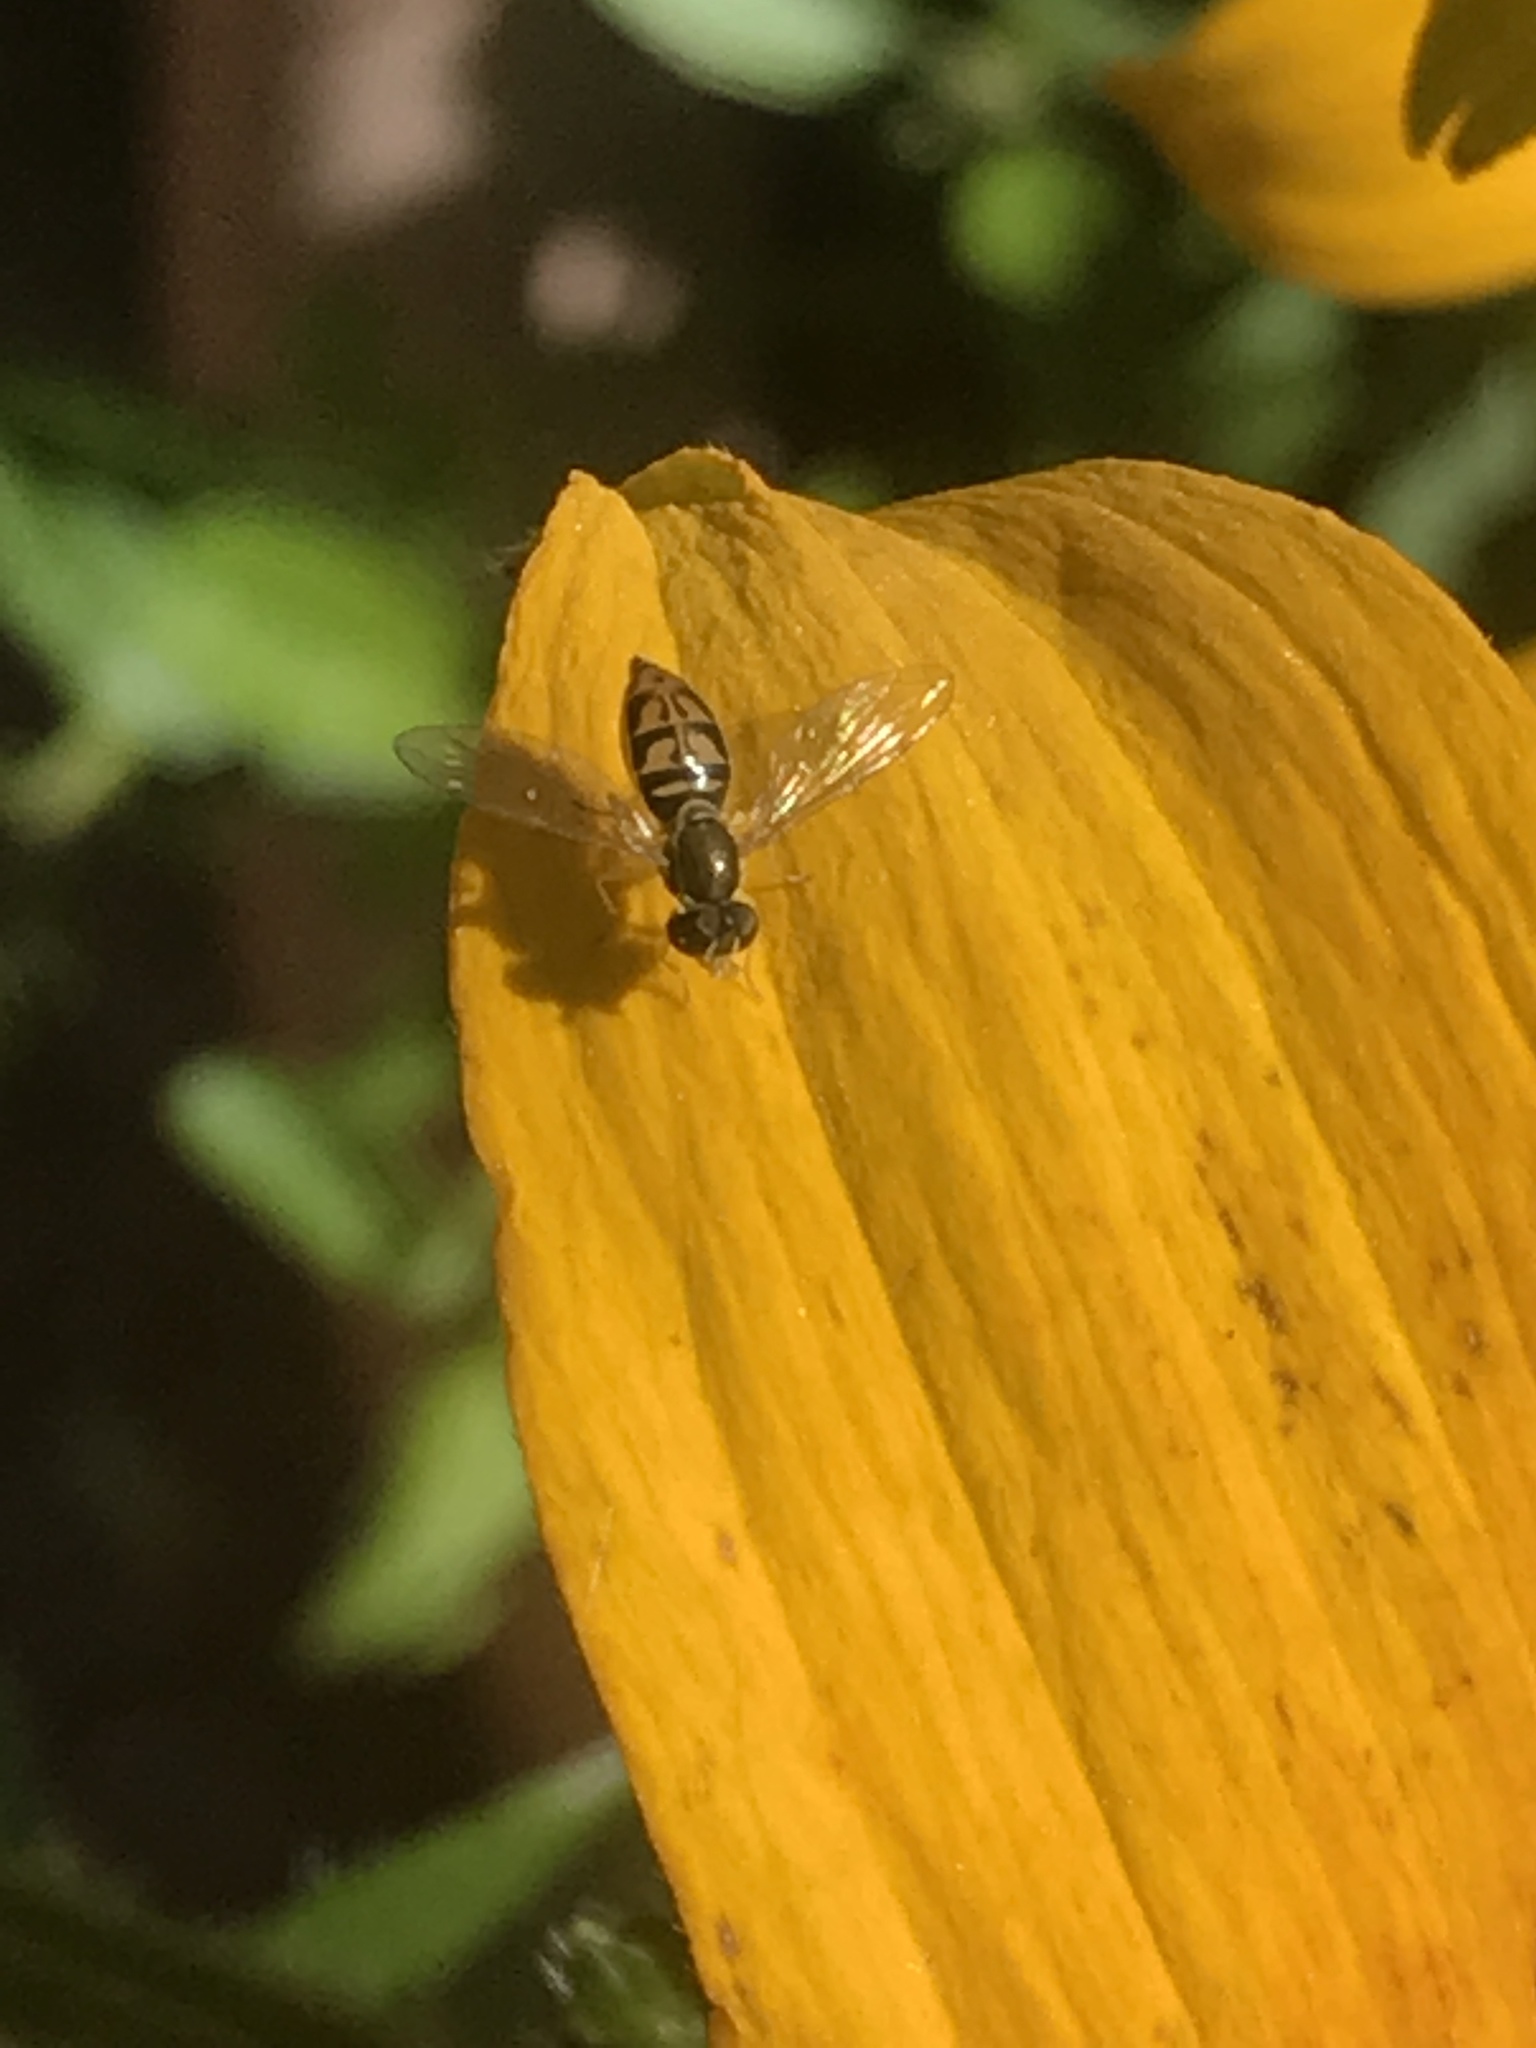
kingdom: Animalia
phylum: Arthropoda
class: Insecta
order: Diptera
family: Syrphidae
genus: Toxomerus
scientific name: Toxomerus marginatus
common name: Syrphid fly
